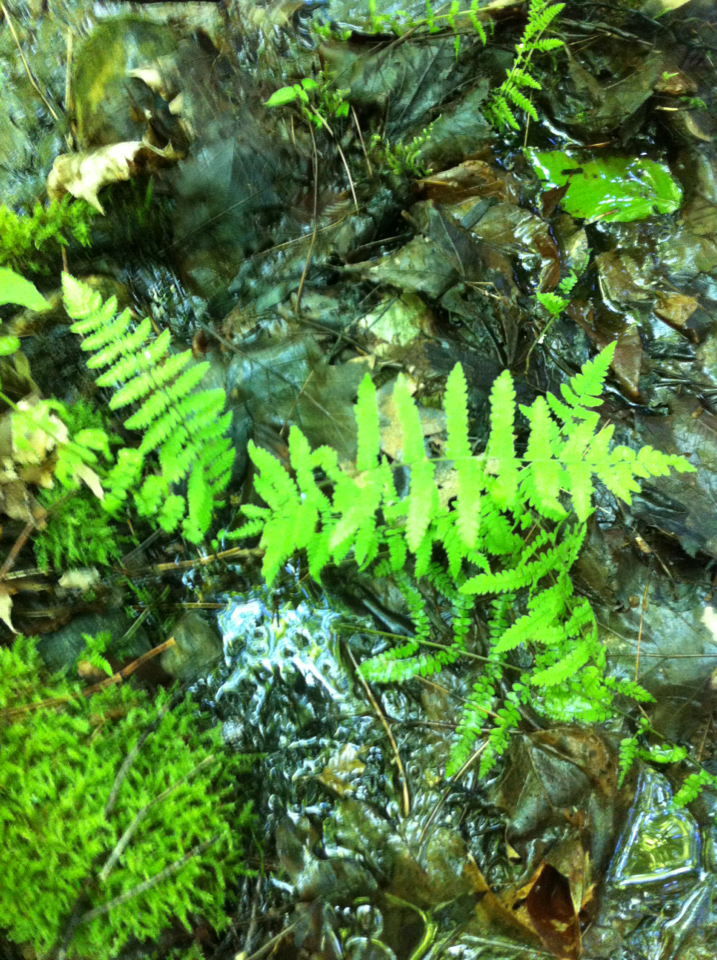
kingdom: Plantae
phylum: Tracheophyta
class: Polypodiopsida
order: Polypodiales
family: Thelypteridaceae
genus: Amauropelta
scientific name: Amauropelta noveboracensis
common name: New york fern
